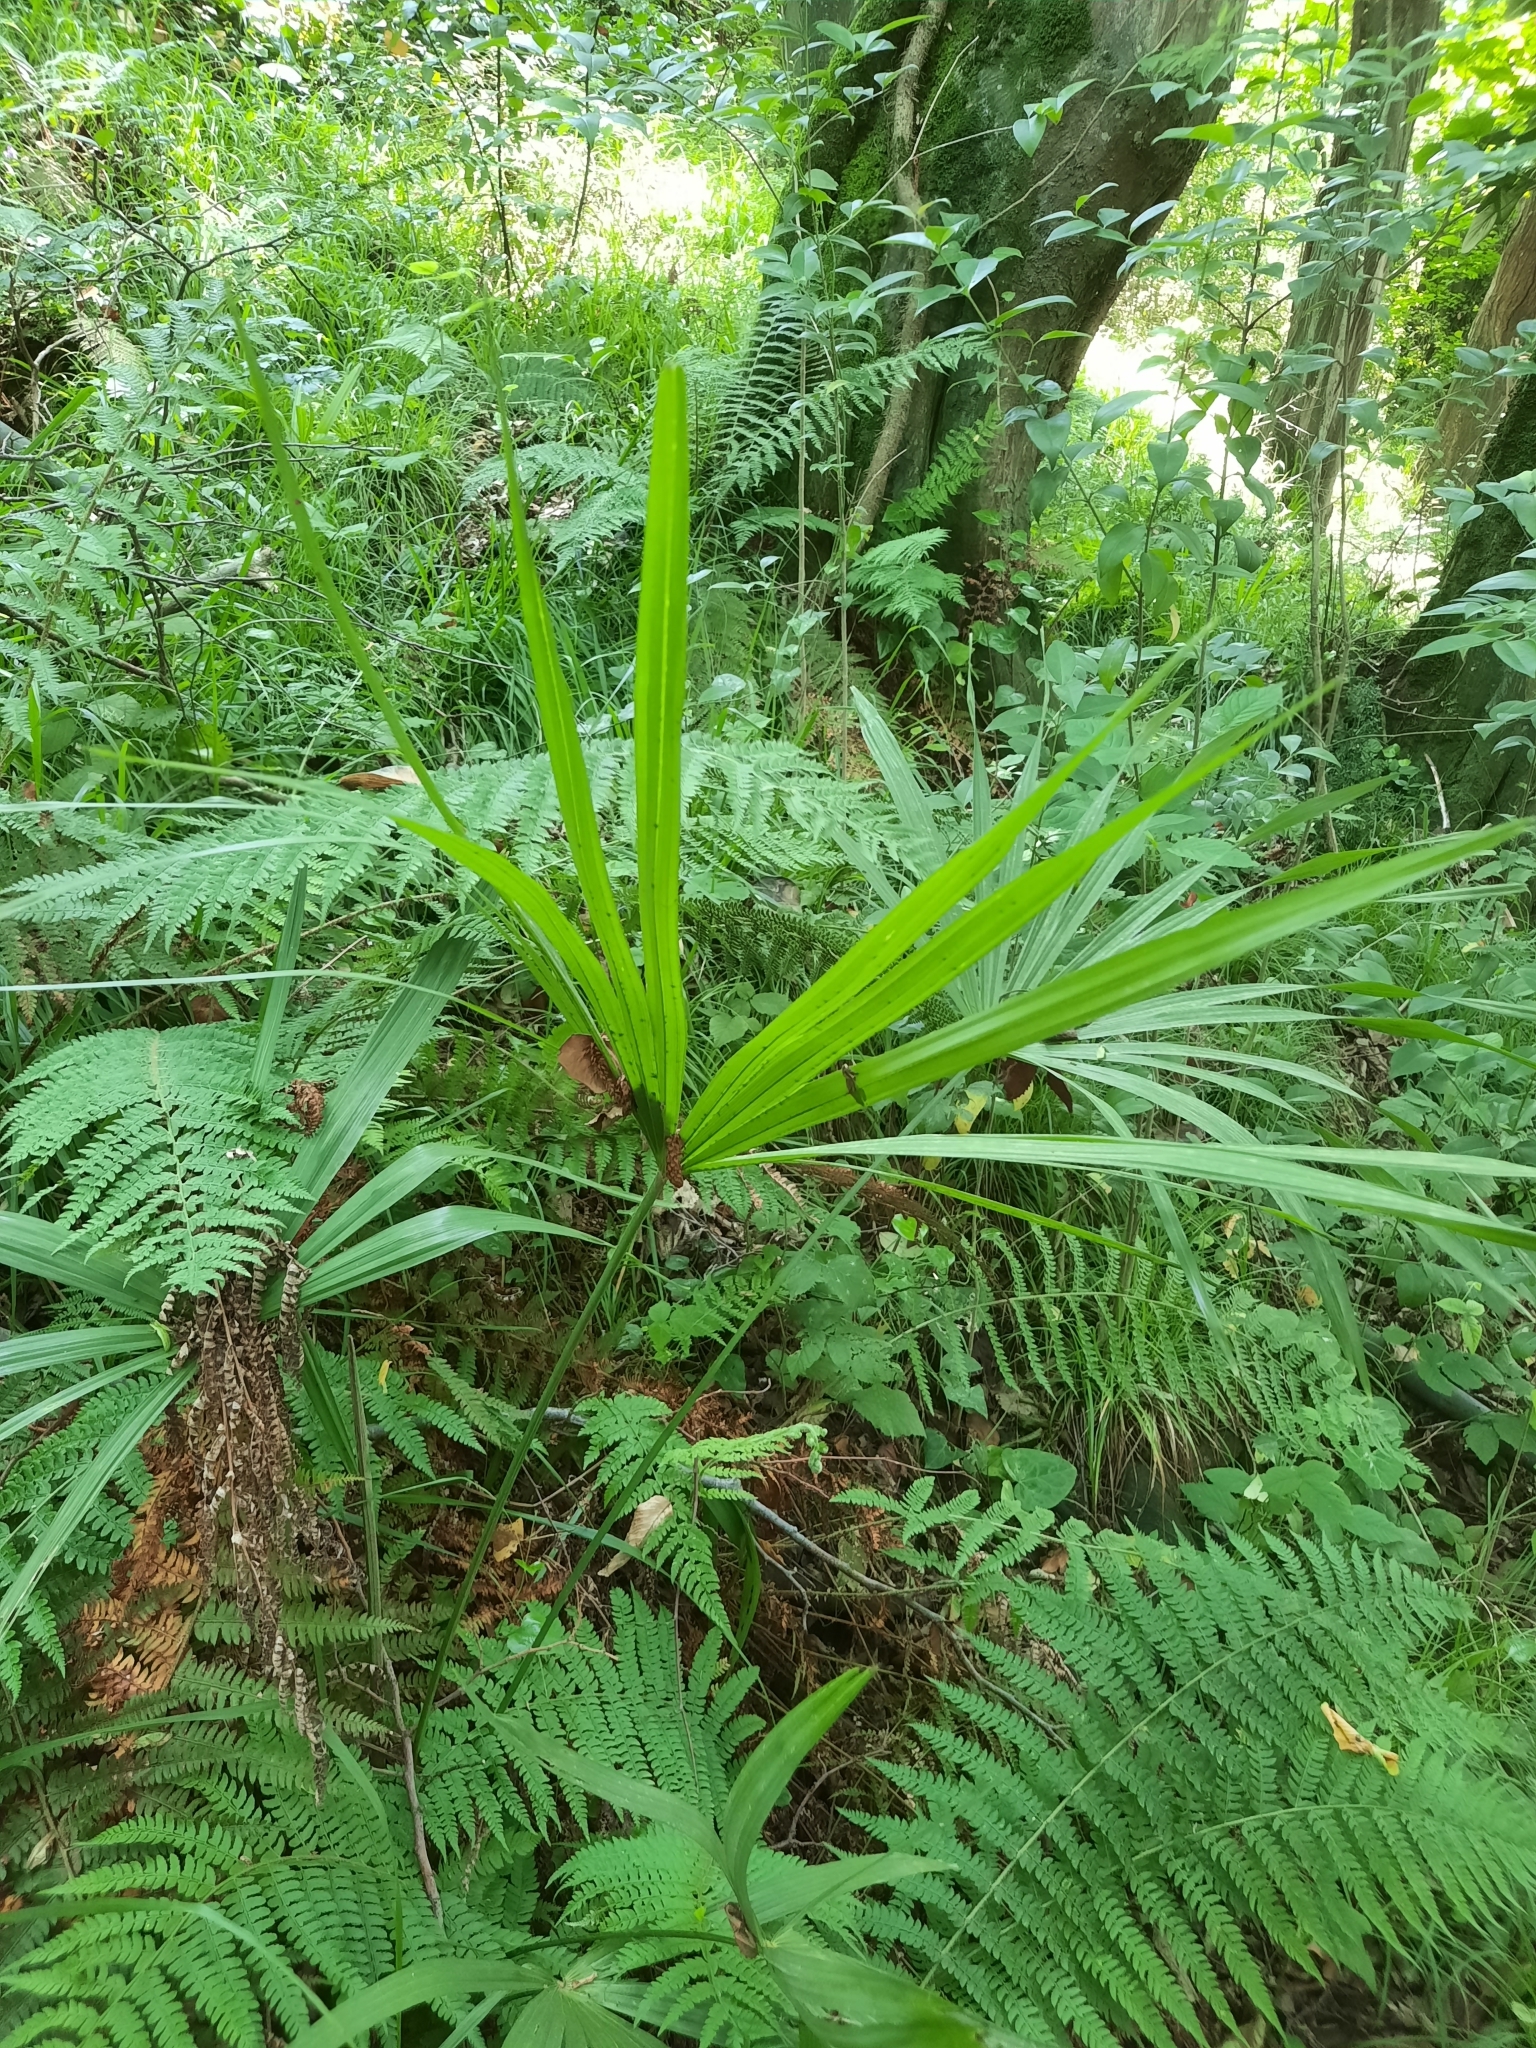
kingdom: Plantae
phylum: Tracheophyta
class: Liliopsida
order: Arecales
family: Arecaceae
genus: Trachycarpus
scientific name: Trachycarpus fortunei
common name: Chusan palm
